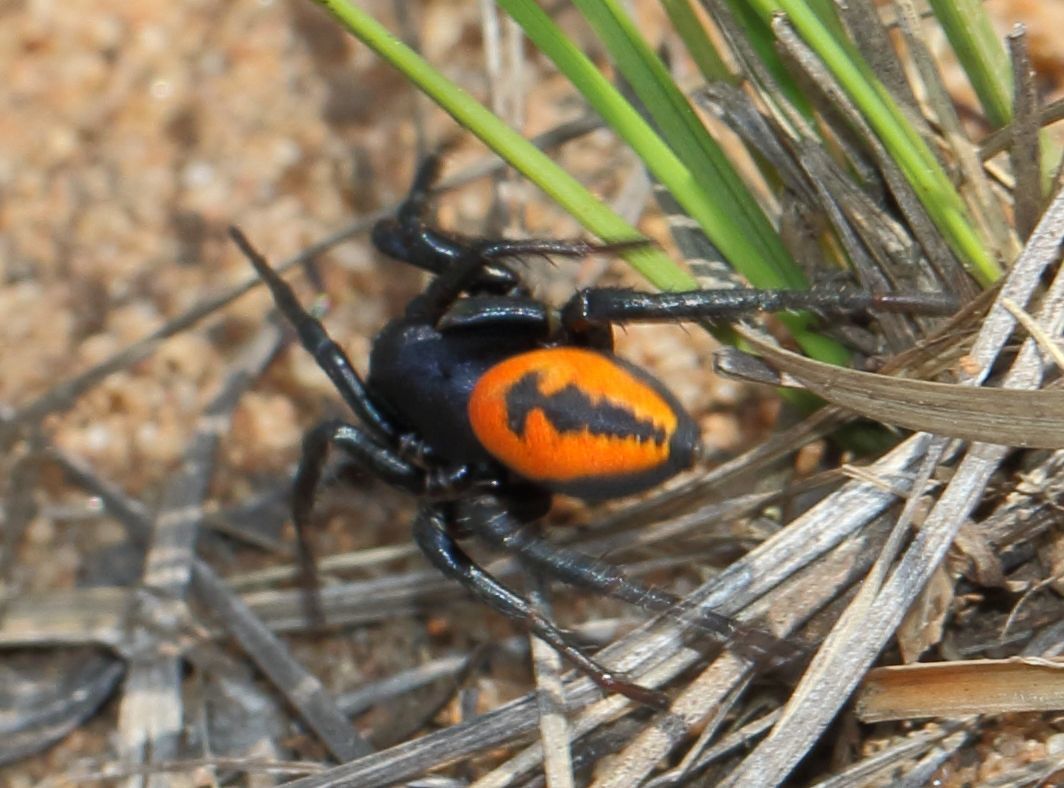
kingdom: Animalia
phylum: Arthropoda
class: Arachnida
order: Araneae
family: Zodariidae
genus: Psammorygma
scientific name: Psammorygma aculeatum
